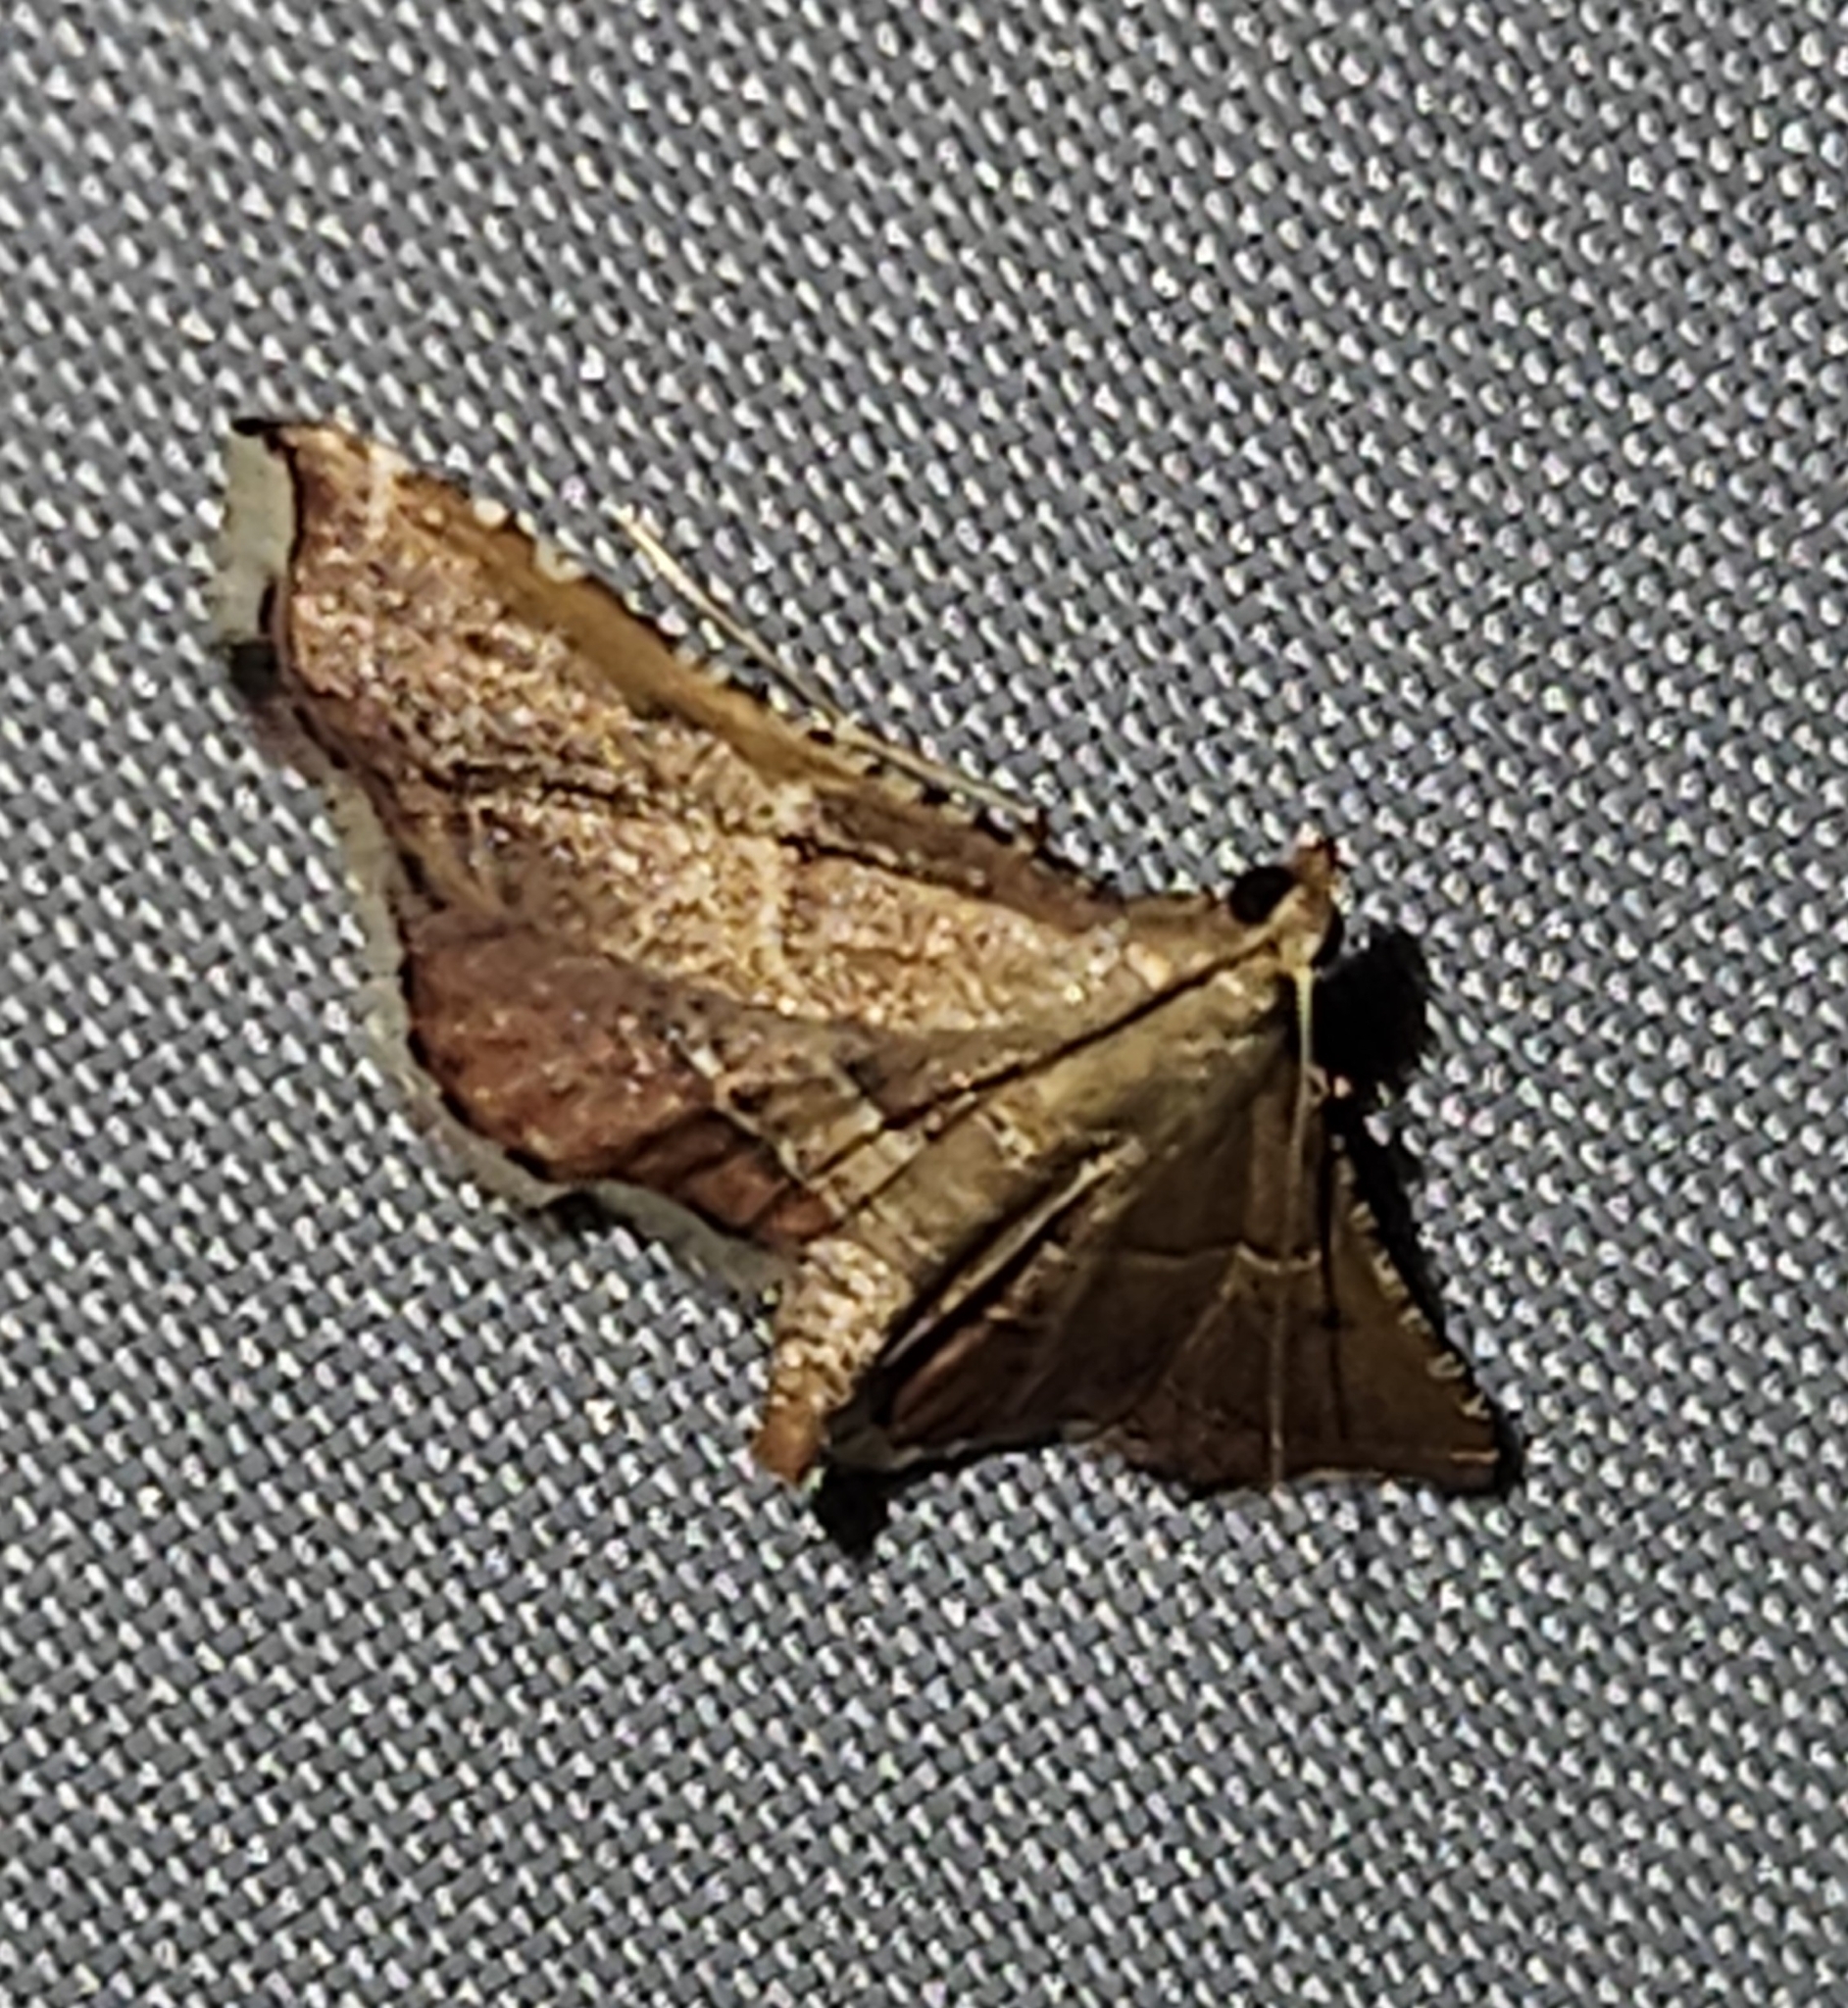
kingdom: Animalia
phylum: Arthropoda
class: Insecta
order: Lepidoptera
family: Pyralidae
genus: Endotricha
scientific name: Endotricha flammealis
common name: Rosy tabby
